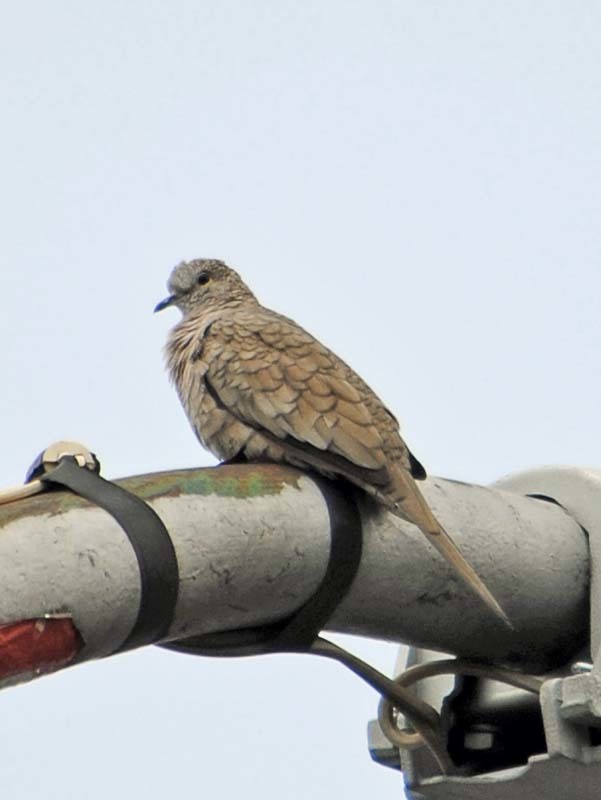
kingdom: Animalia
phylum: Chordata
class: Aves
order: Columbiformes
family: Columbidae
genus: Columbina
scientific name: Columbina inca
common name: Inca dove
